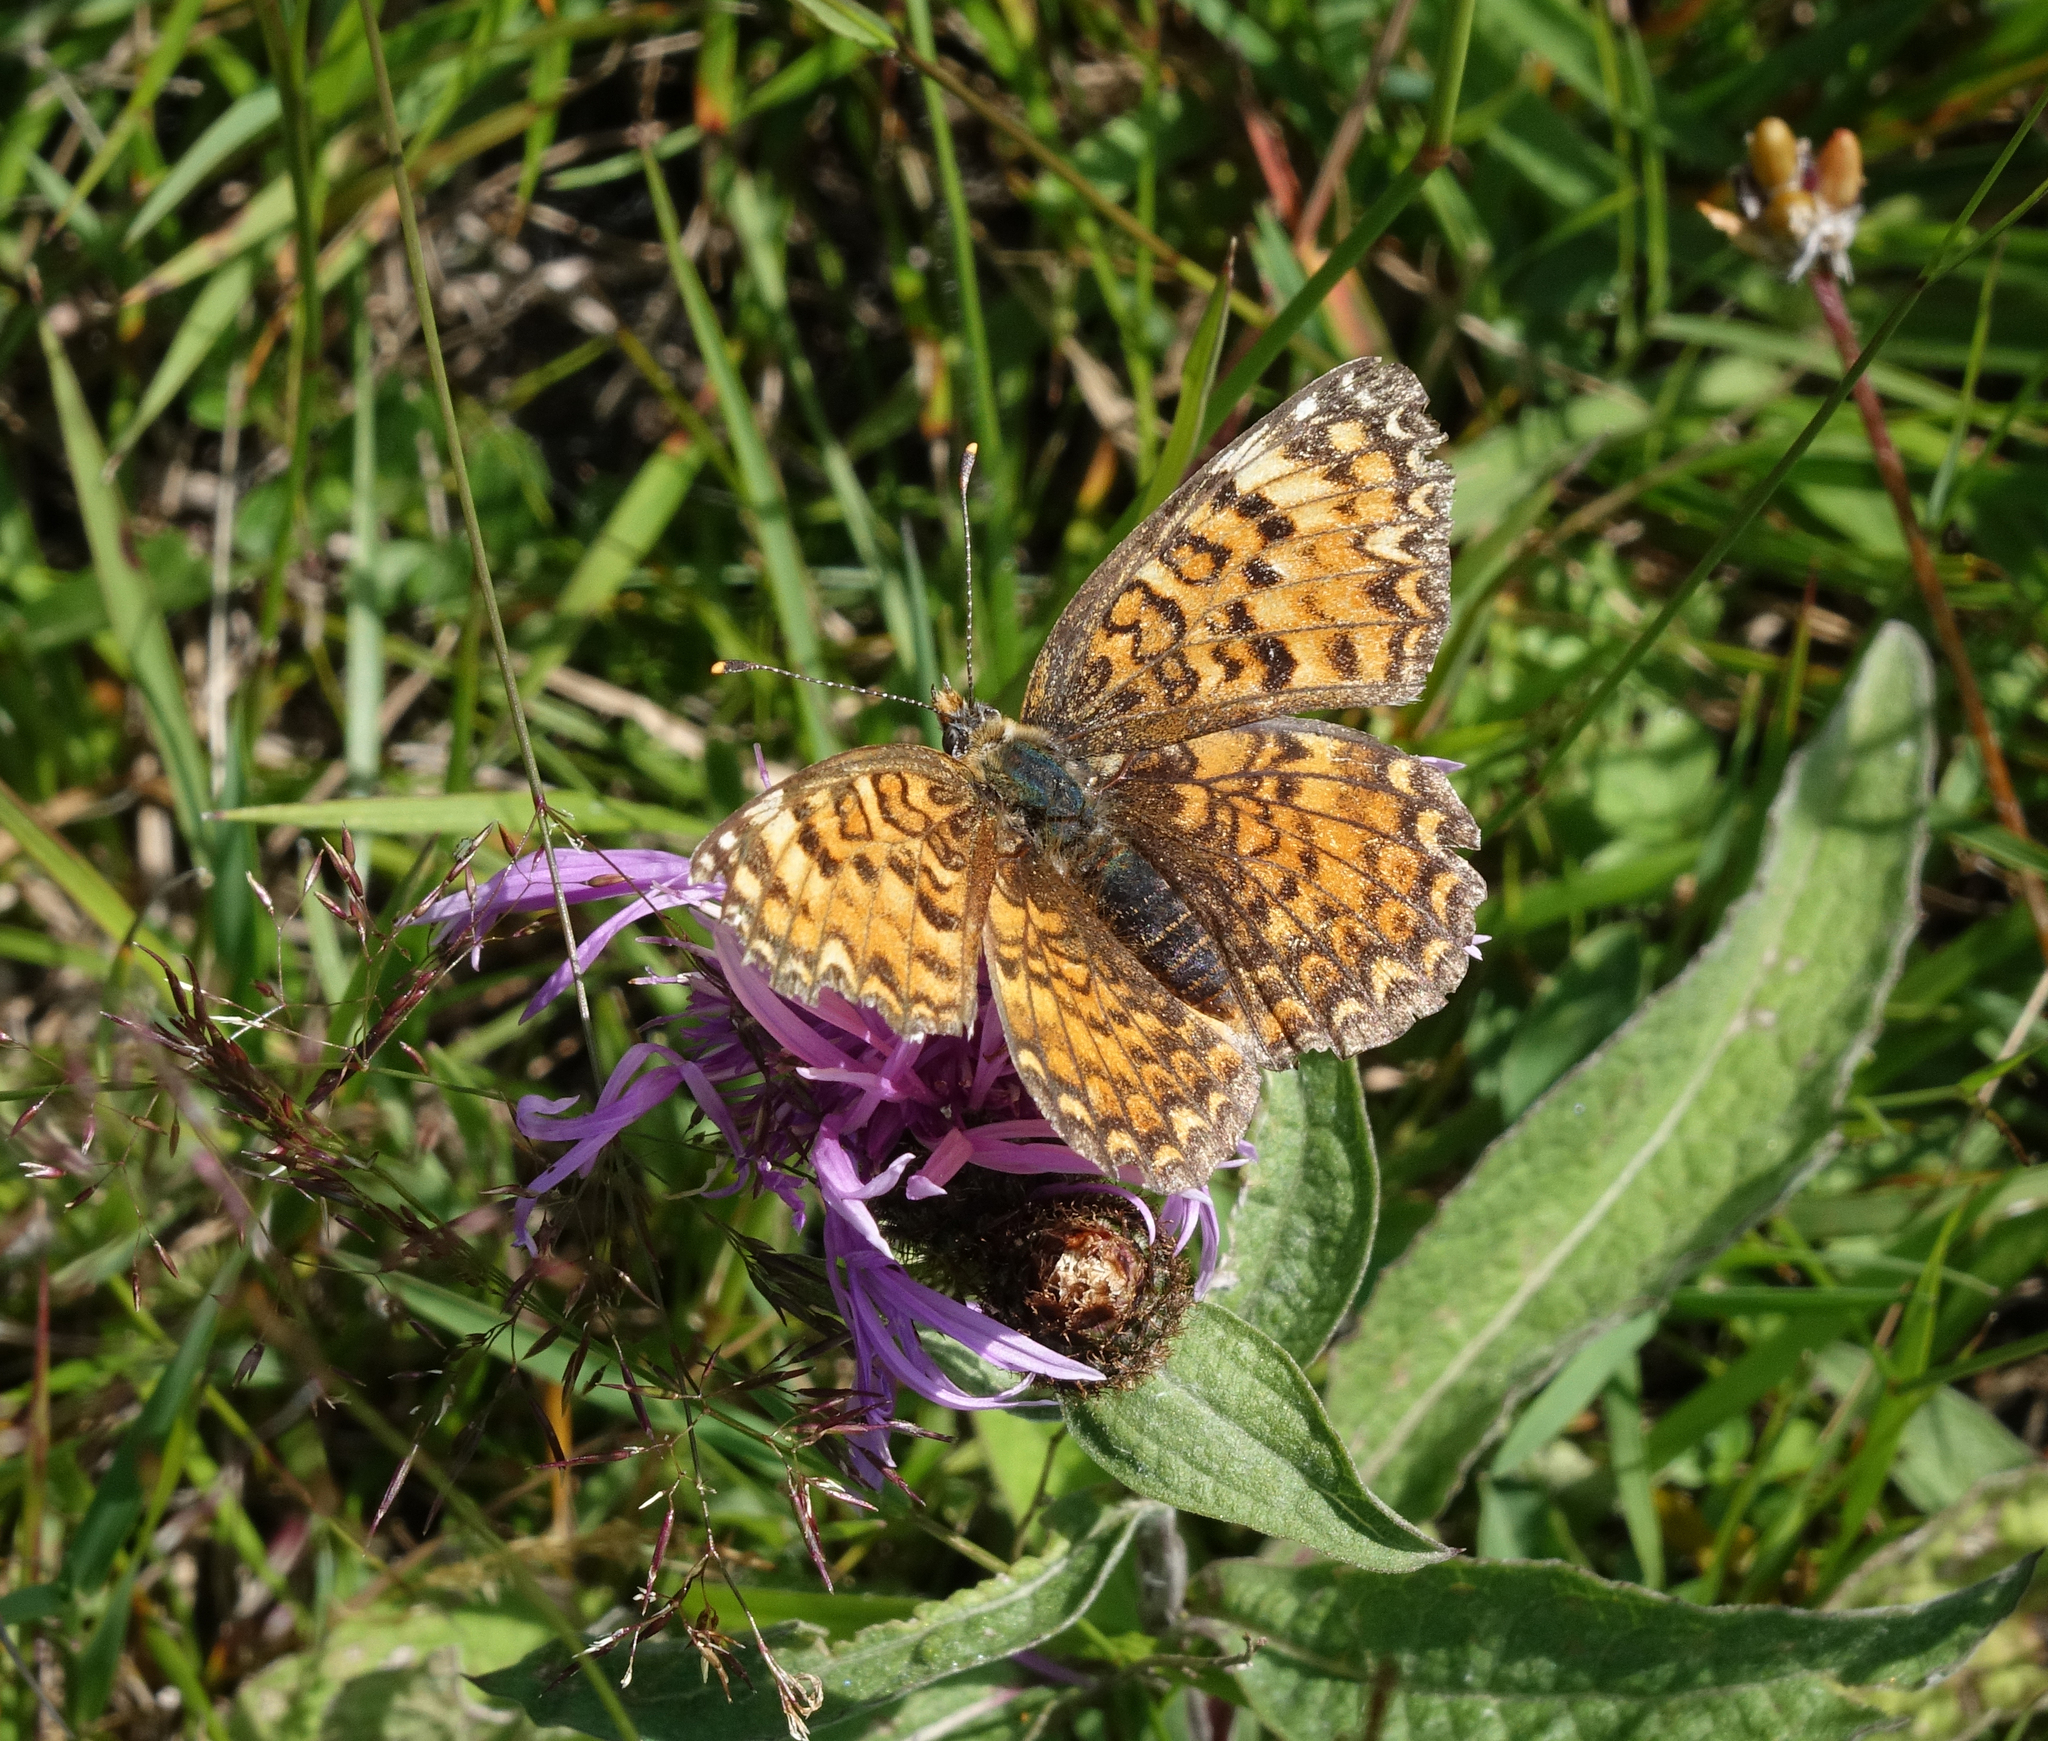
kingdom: Animalia
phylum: Arthropoda
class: Insecta
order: Lepidoptera
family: Nymphalidae
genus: Melitaea
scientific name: Melitaea phoebe
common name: Knapweed fritillary
